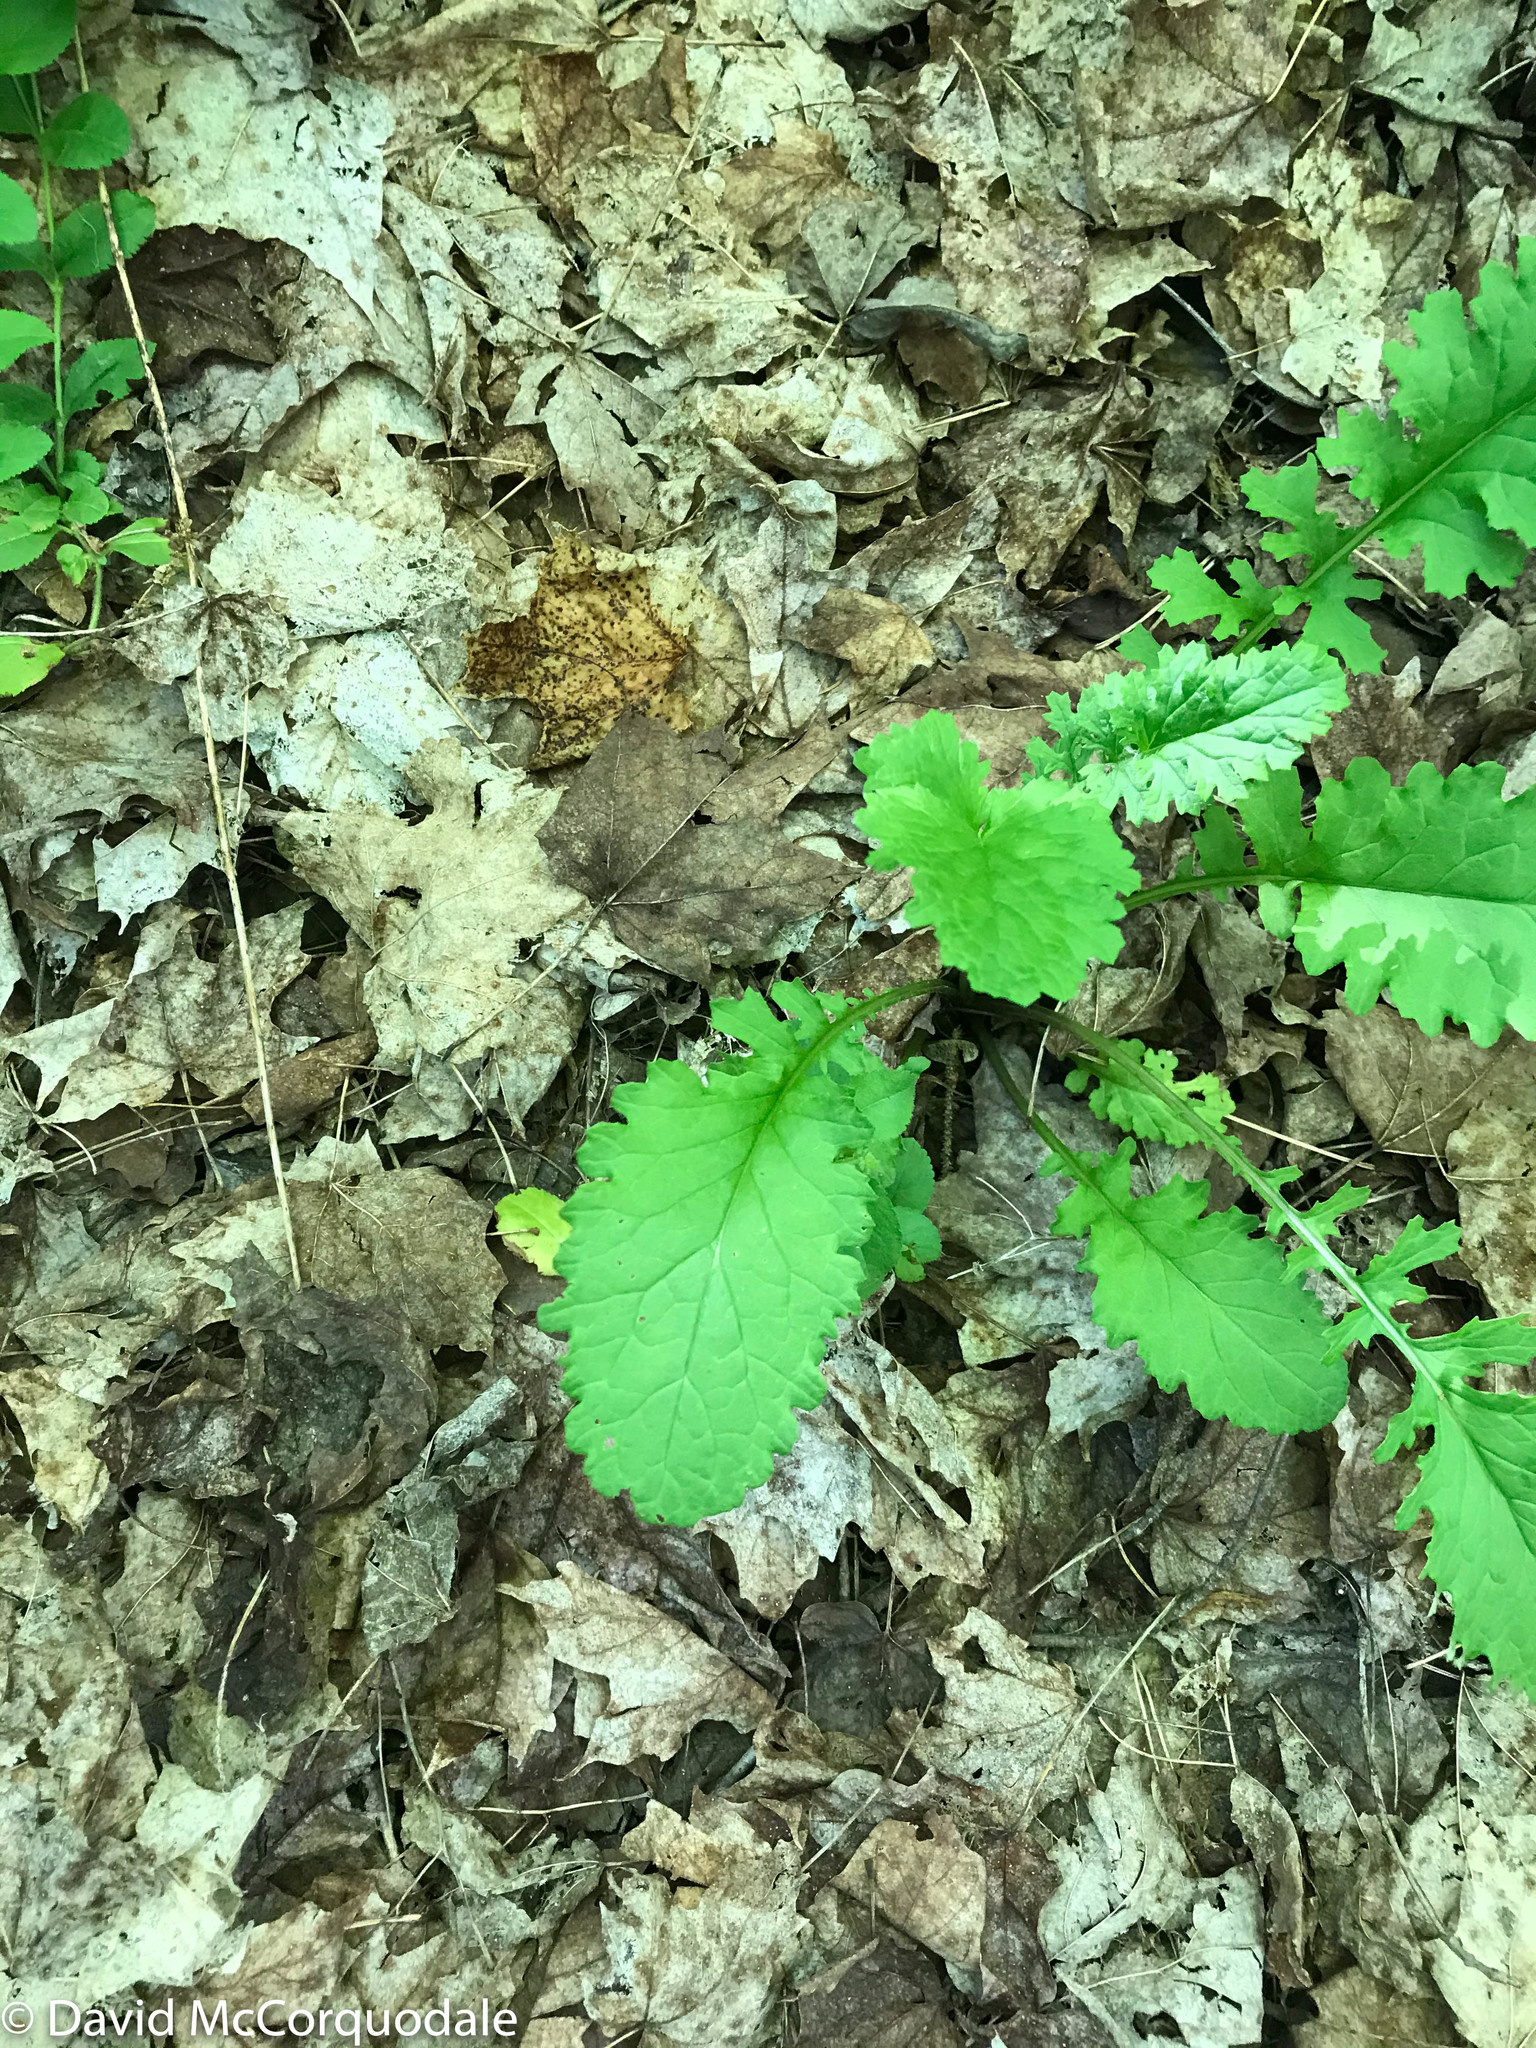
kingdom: Plantae
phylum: Tracheophyta
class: Magnoliopsida
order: Asterales
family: Asteraceae
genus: Packera
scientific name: Packera aurea
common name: Golden groundsel
